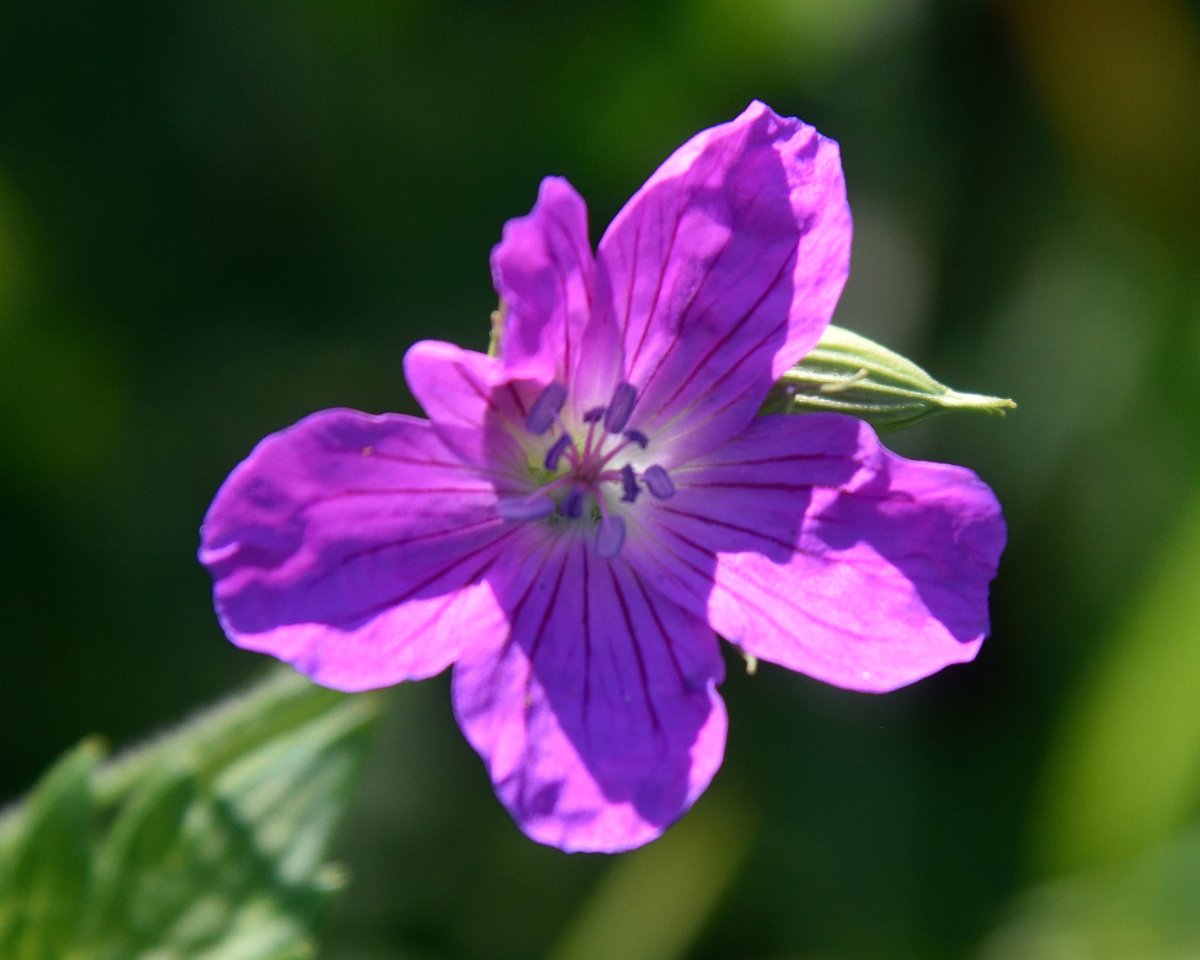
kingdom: Plantae
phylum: Tracheophyta
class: Magnoliopsida
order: Geraniales
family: Geraniaceae
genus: Geranium
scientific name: Geranium palustre
